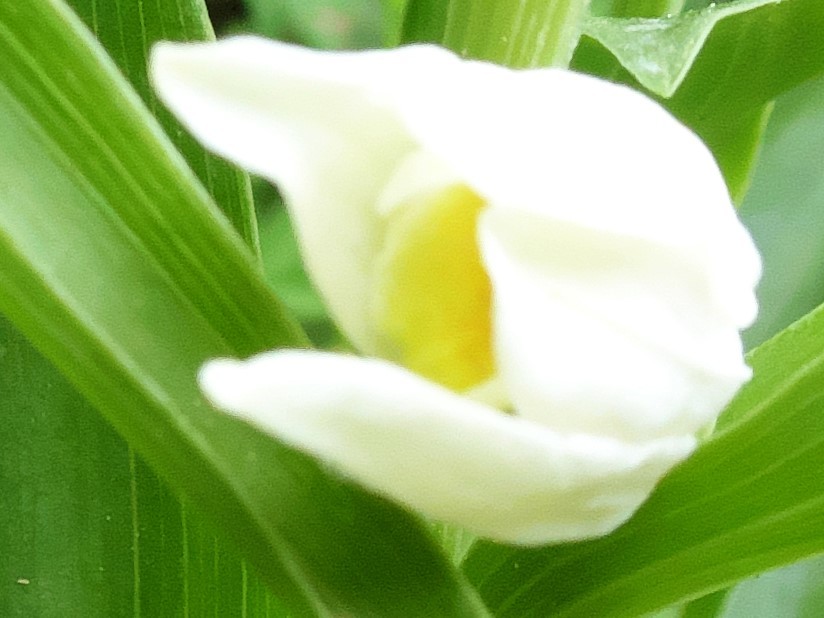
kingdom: Plantae
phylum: Tracheophyta
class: Liliopsida
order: Asparagales
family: Orchidaceae
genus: Cephalanthera
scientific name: Cephalanthera damasonium
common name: White helleborine
